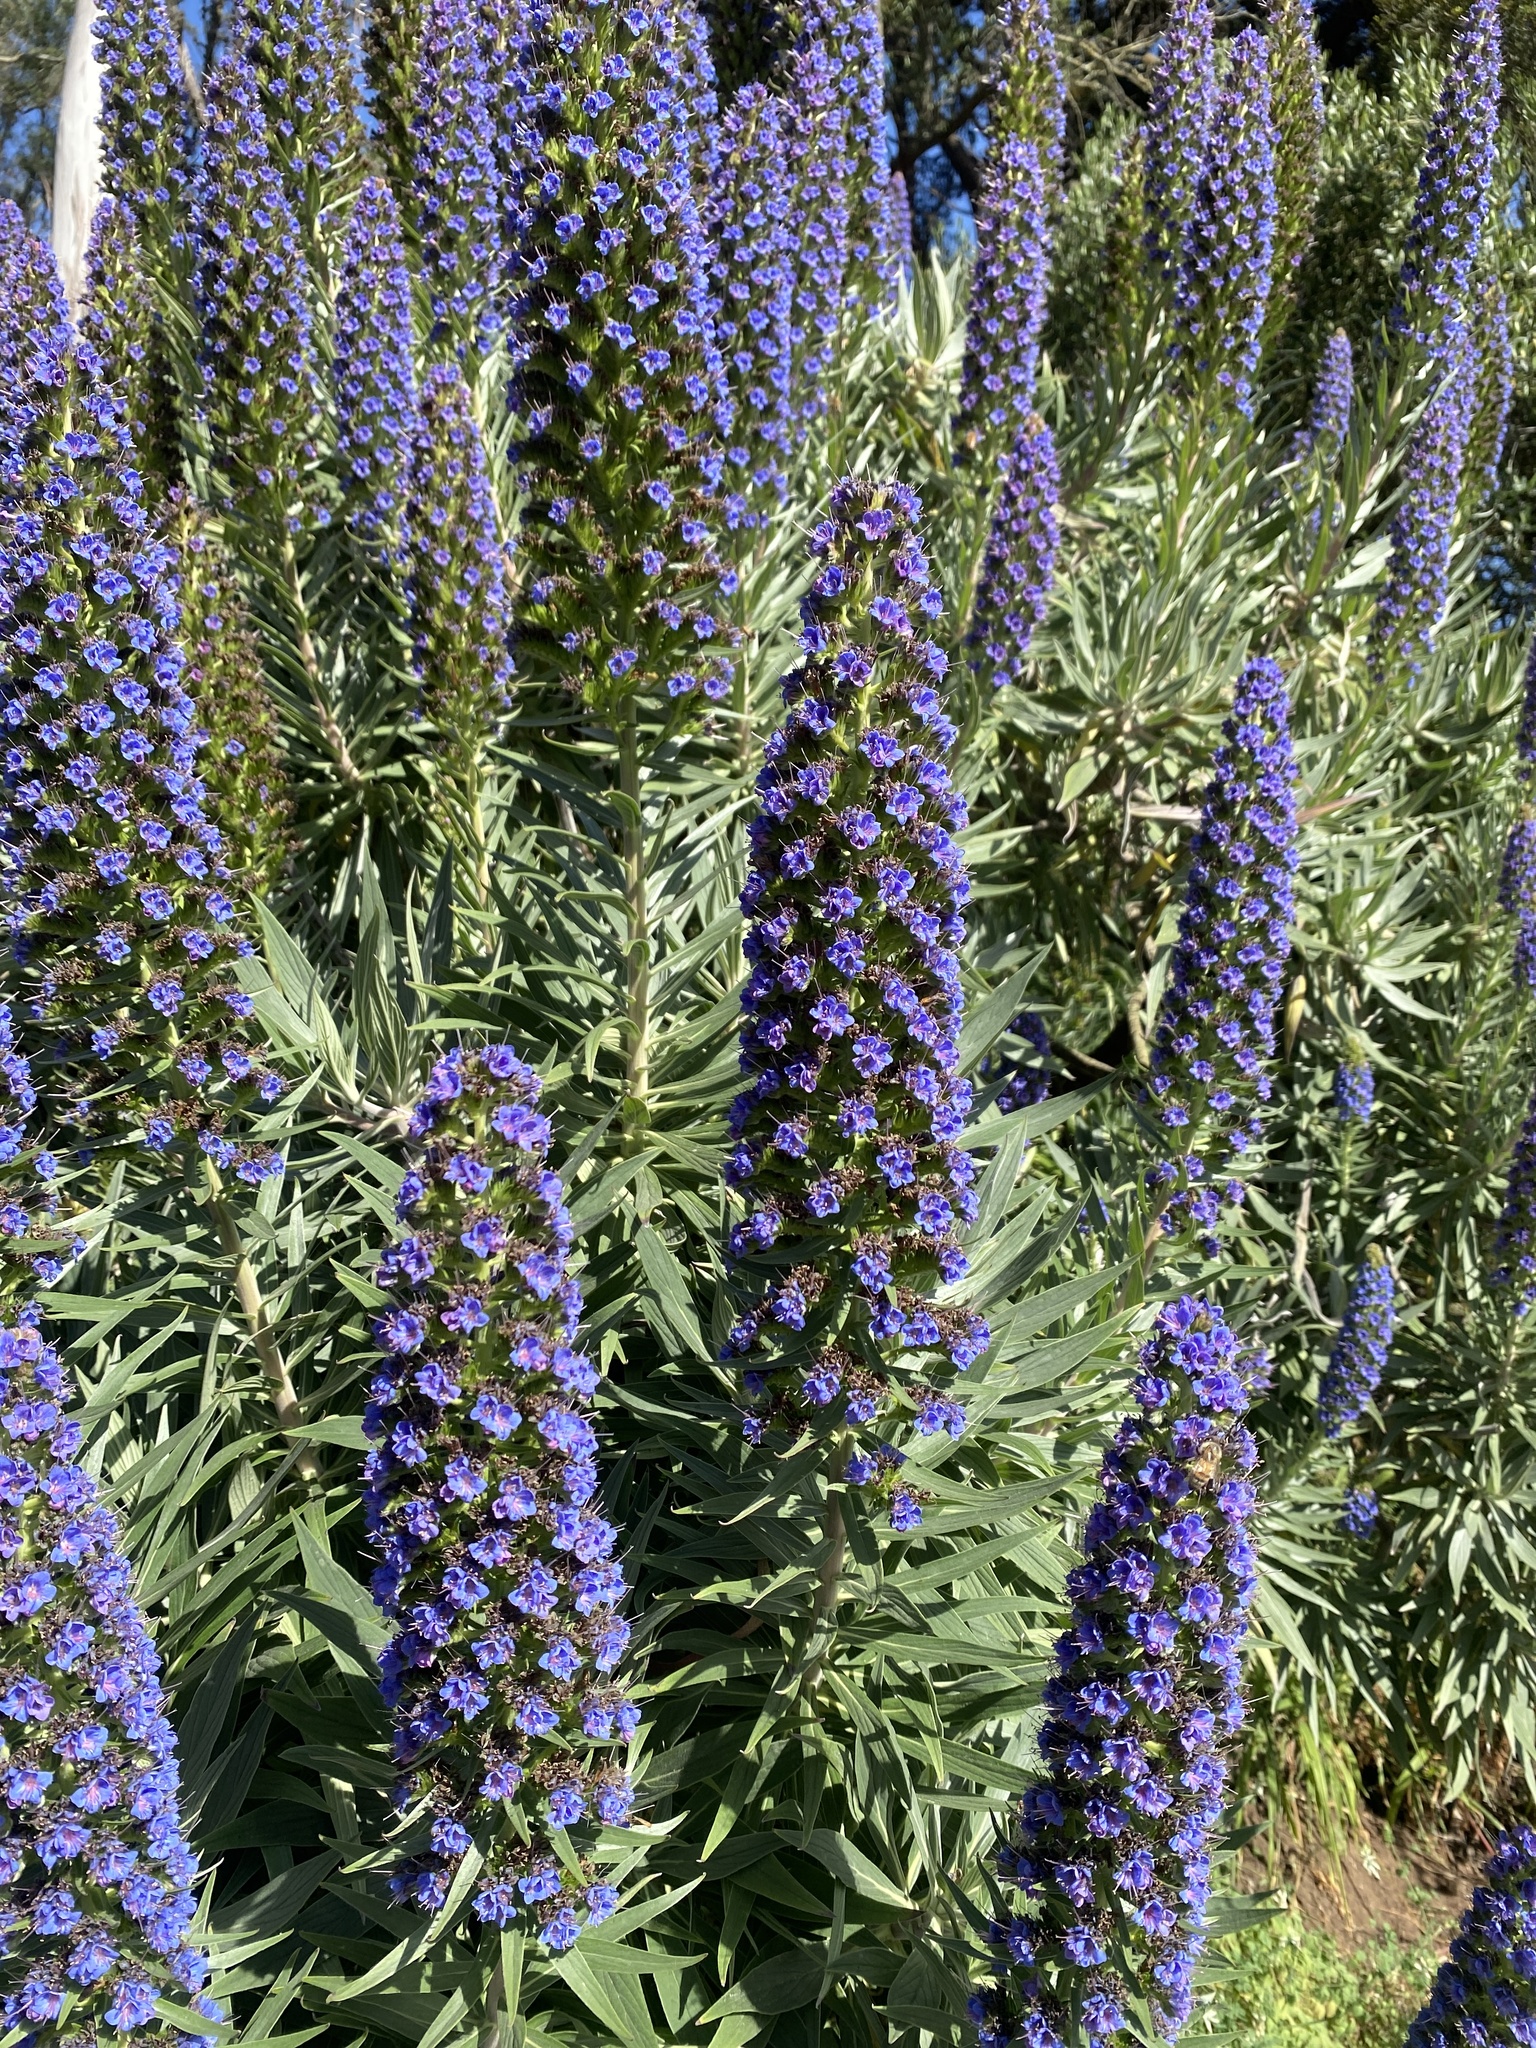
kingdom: Plantae
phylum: Tracheophyta
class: Magnoliopsida
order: Boraginales
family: Boraginaceae
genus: Echium
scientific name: Echium candicans
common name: Pride of madeira
